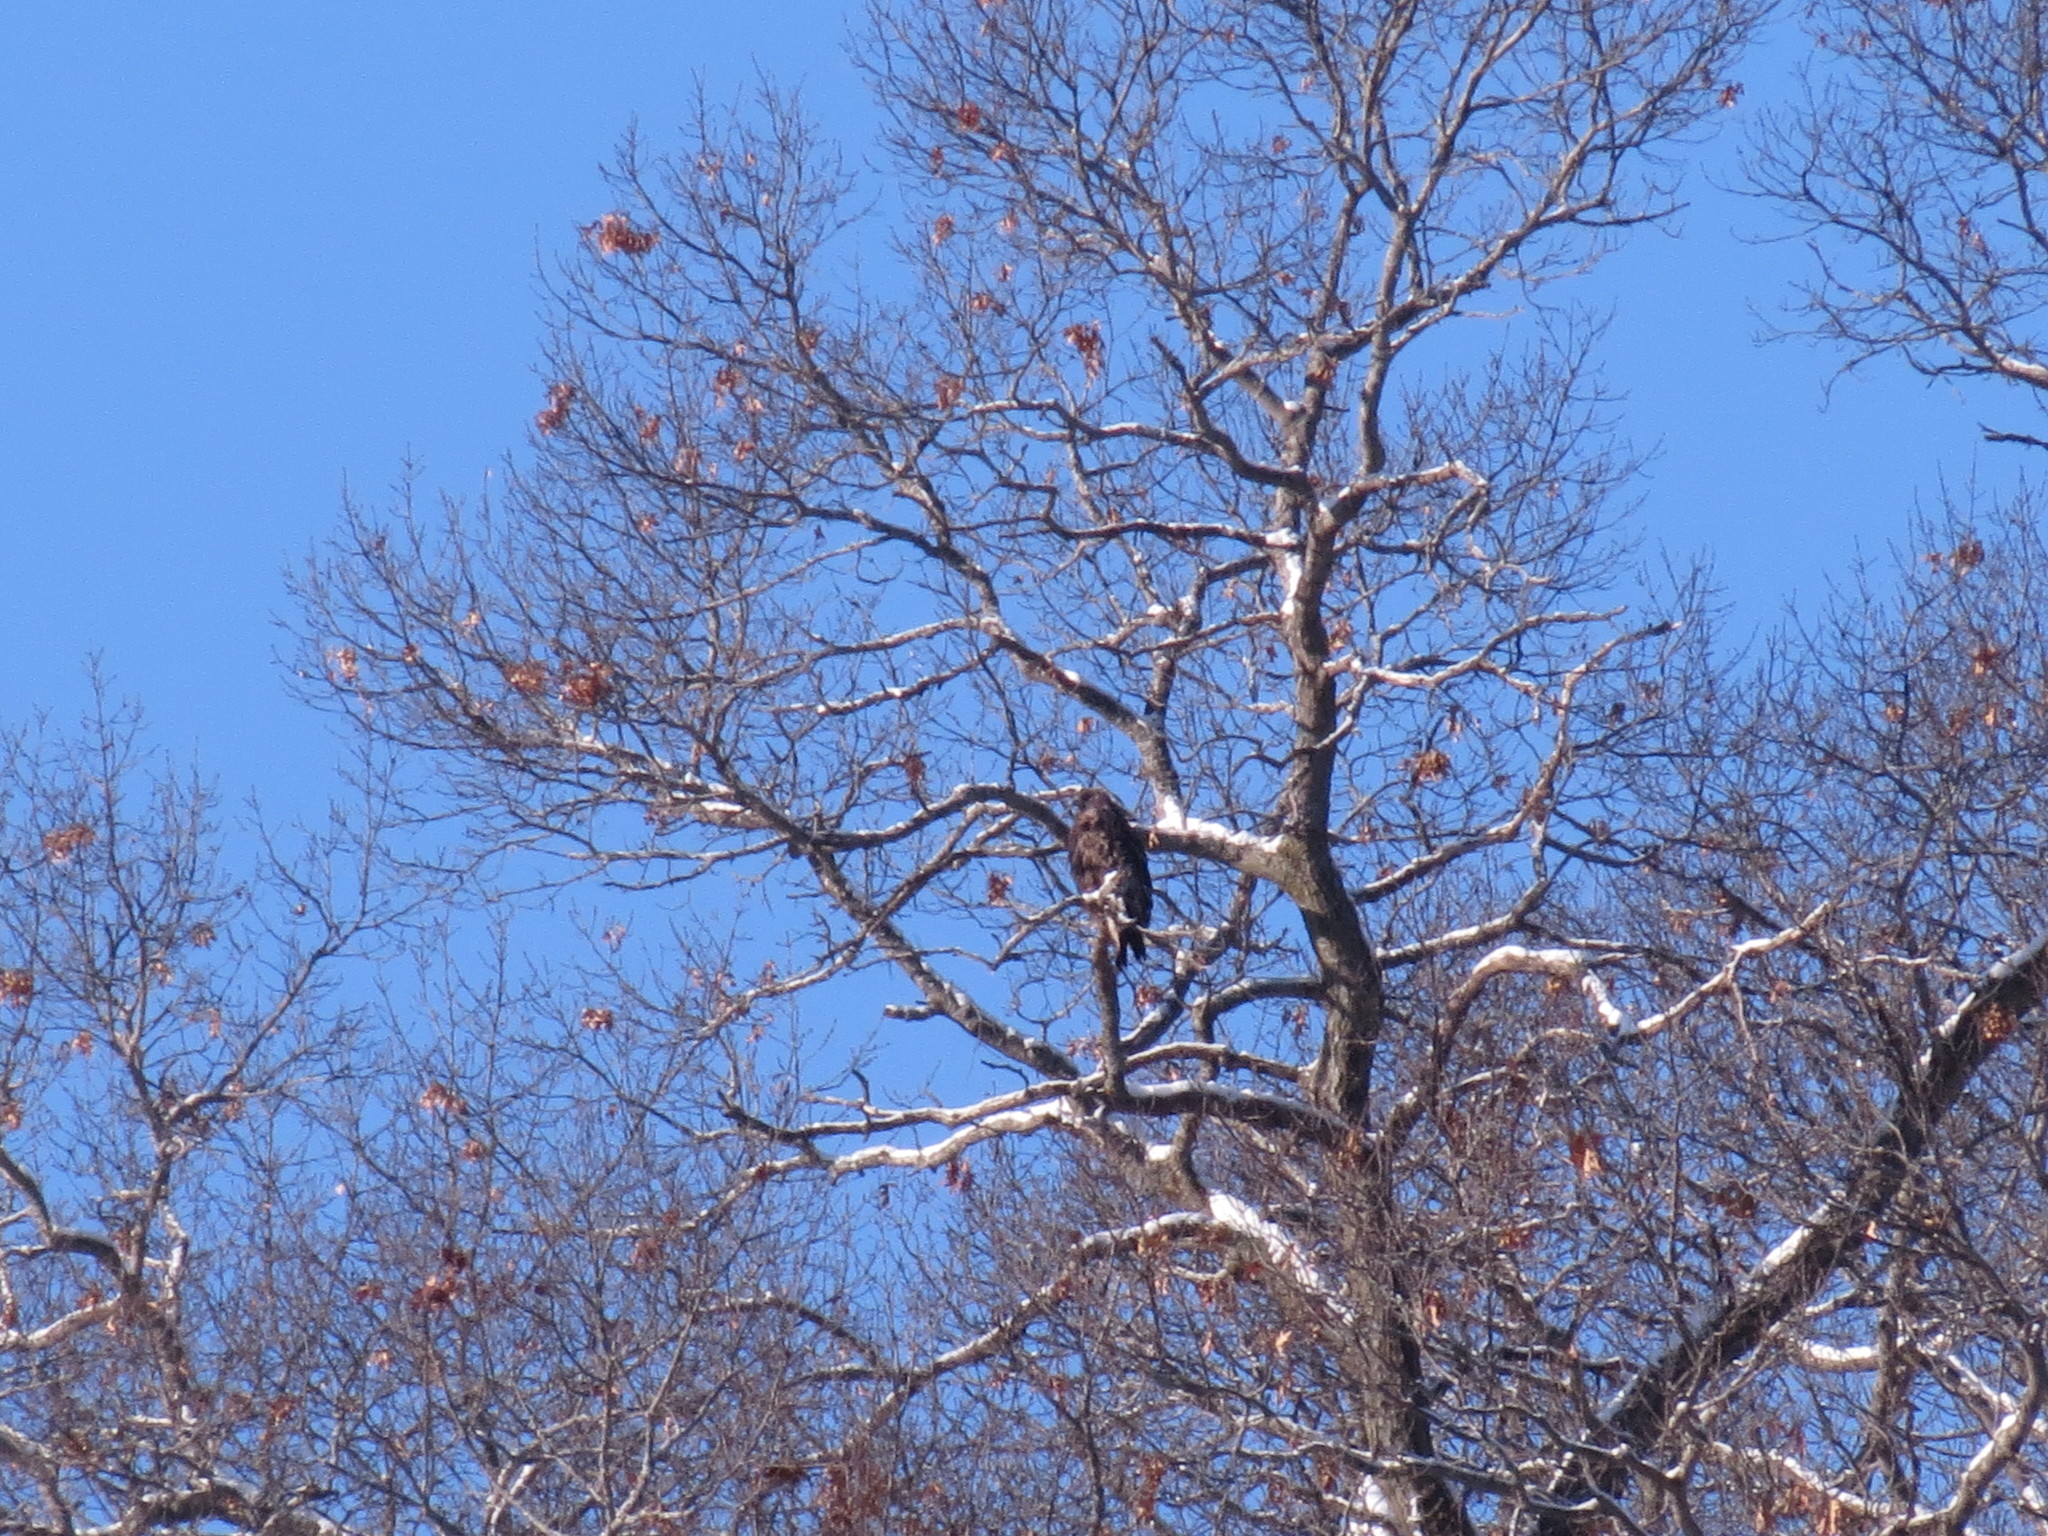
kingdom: Animalia
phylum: Chordata
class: Aves
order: Accipitriformes
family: Accipitridae
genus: Buteo
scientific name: Buteo jamaicensis
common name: Red-tailed hawk
